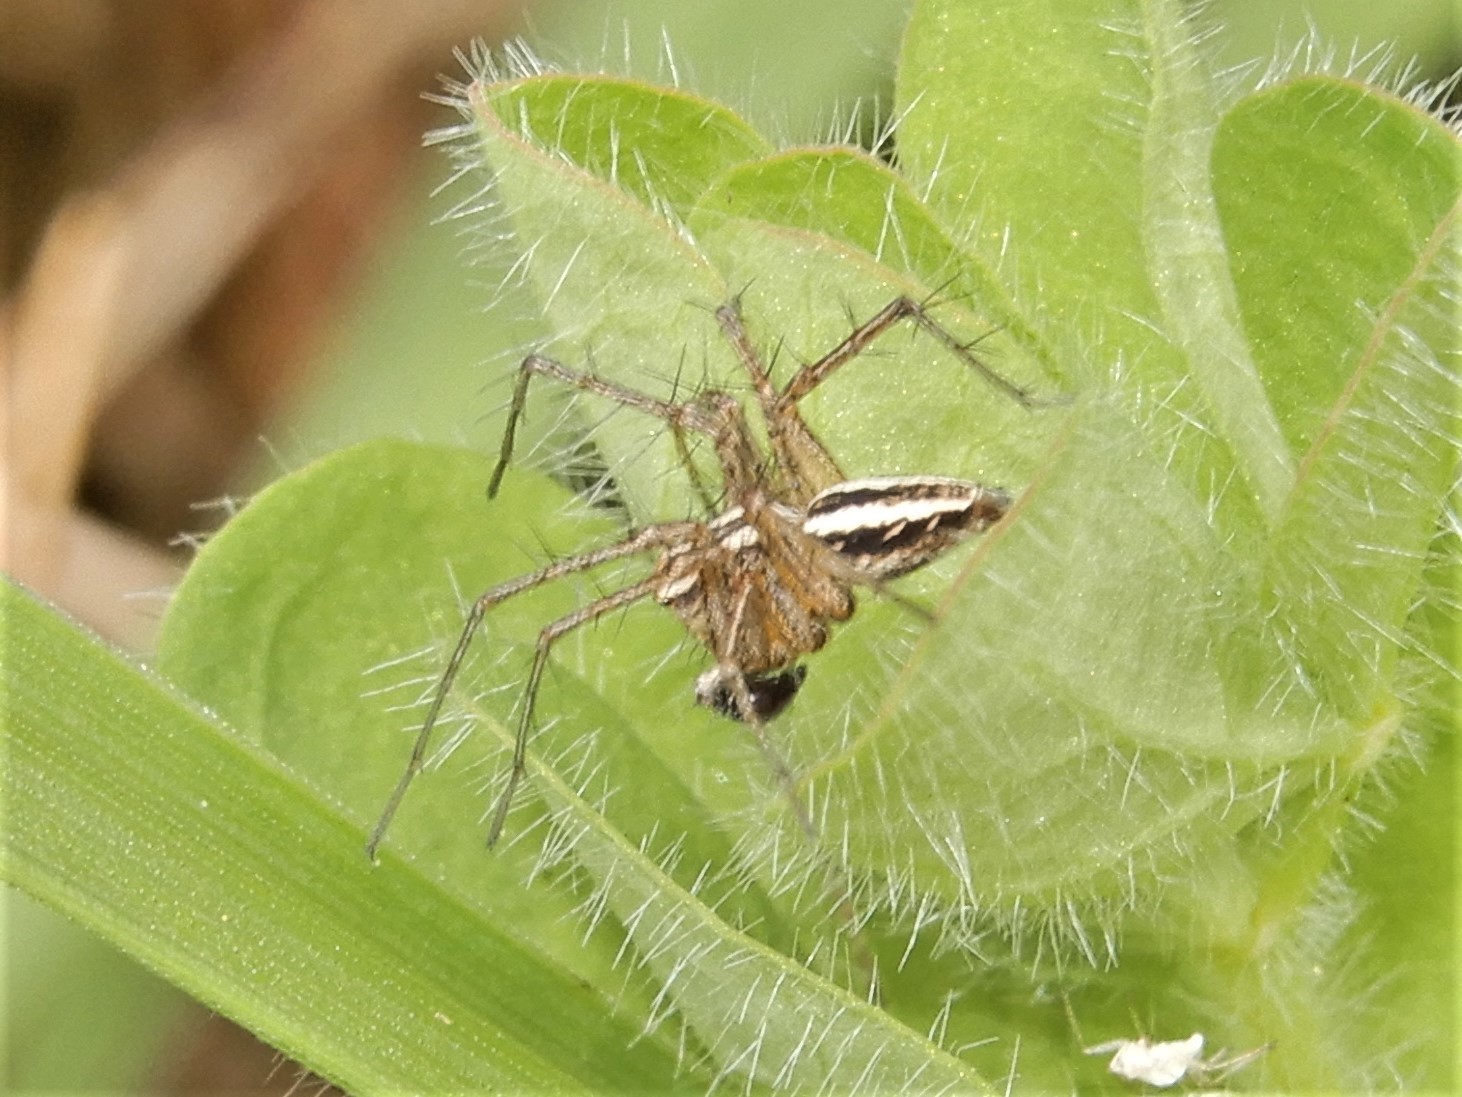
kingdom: Animalia
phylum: Arthropoda
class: Arachnida
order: Araneae
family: Oxyopidae
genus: Oxyopes
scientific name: Oxyopes gracilipes
